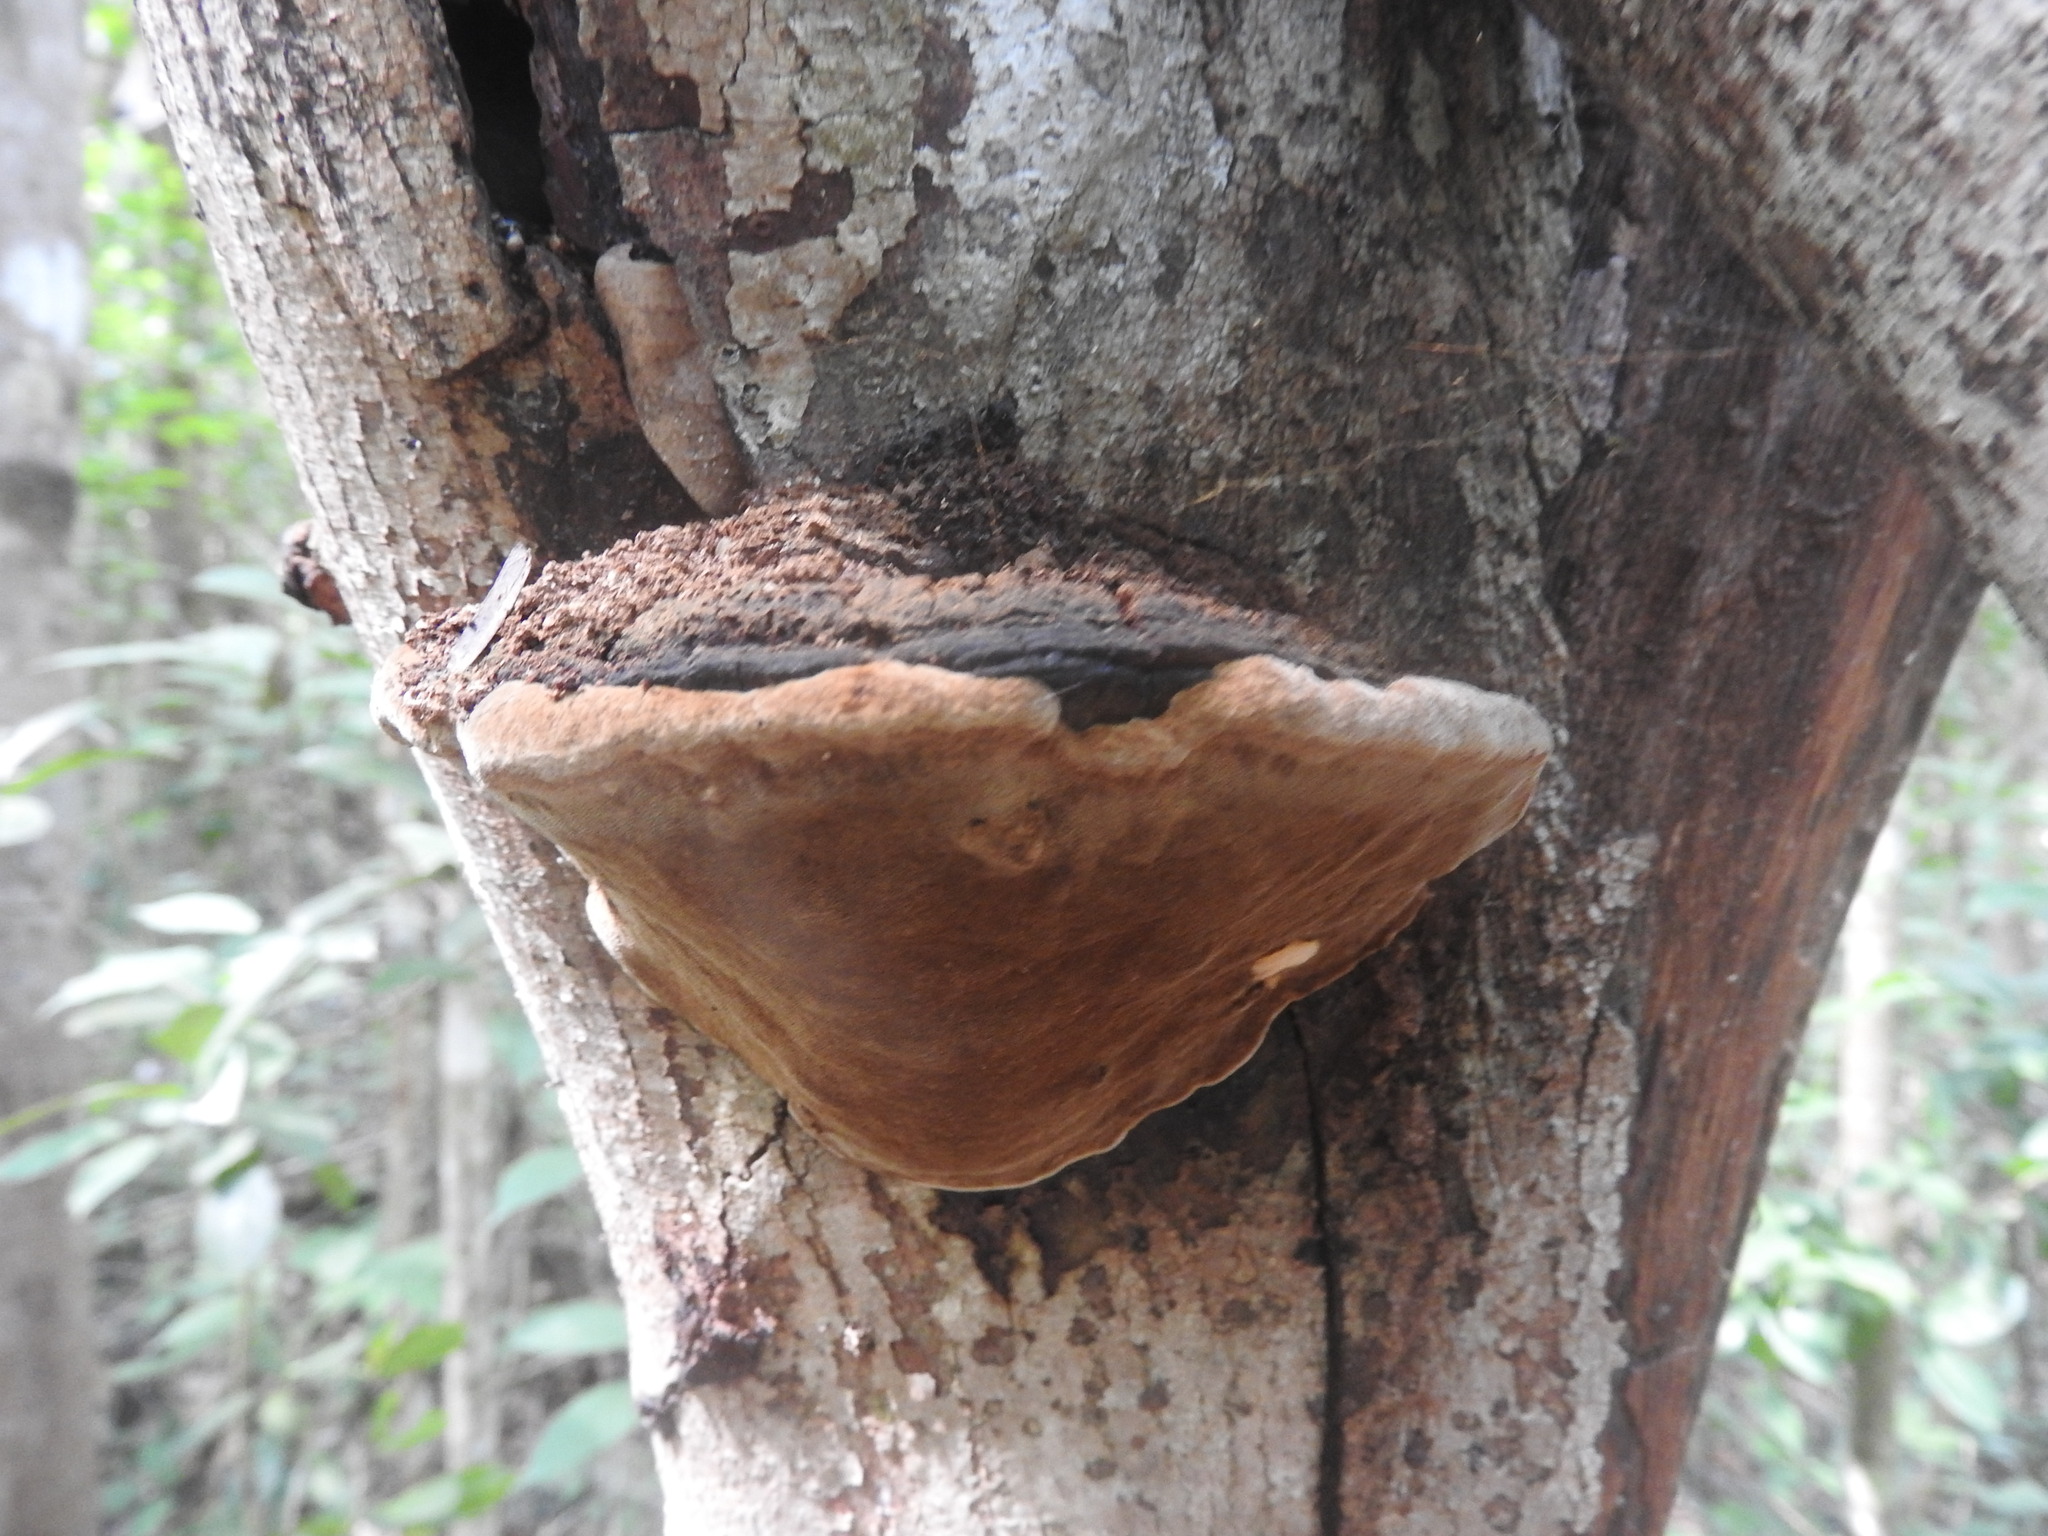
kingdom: Fungi
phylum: Basidiomycota
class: Agaricomycetes
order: Hymenochaetales
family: Hymenochaetaceae
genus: Phellinus
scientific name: Phellinus robiniae
